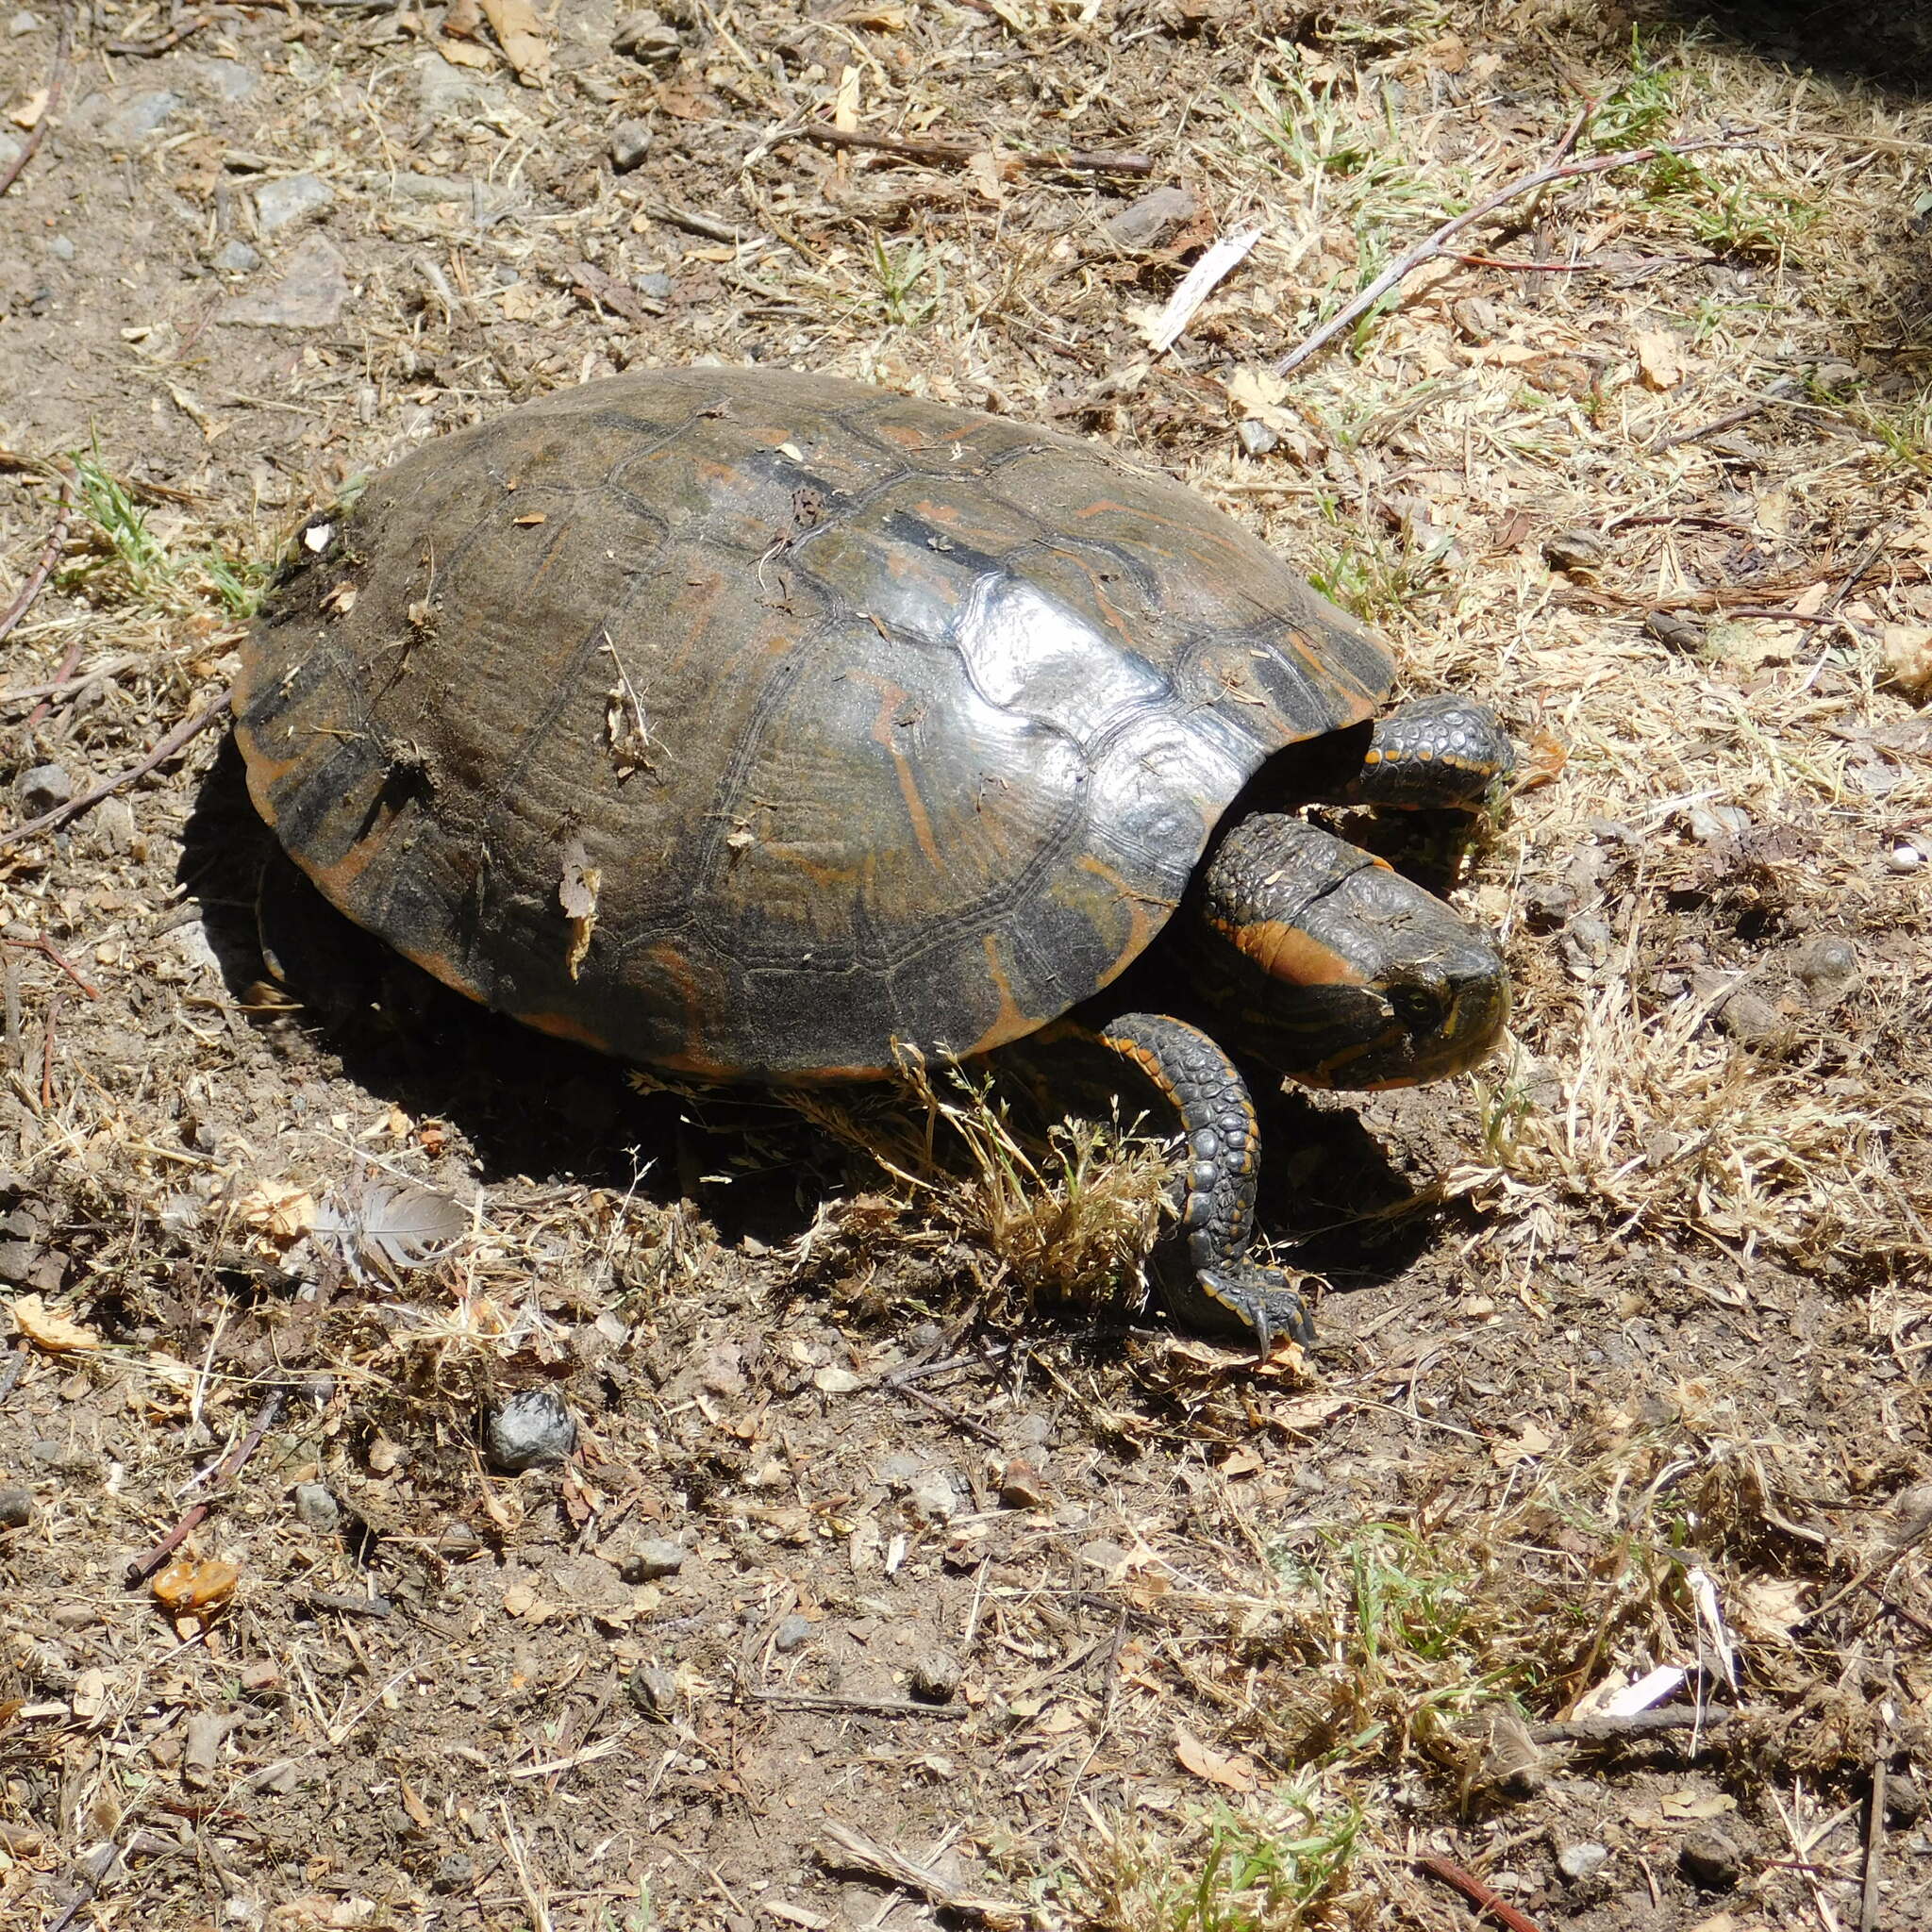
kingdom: Animalia
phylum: Chordata
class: Testudines
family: Emydidae
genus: Trachemys
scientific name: Trachemys dorbigni
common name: Black-bellied slider
